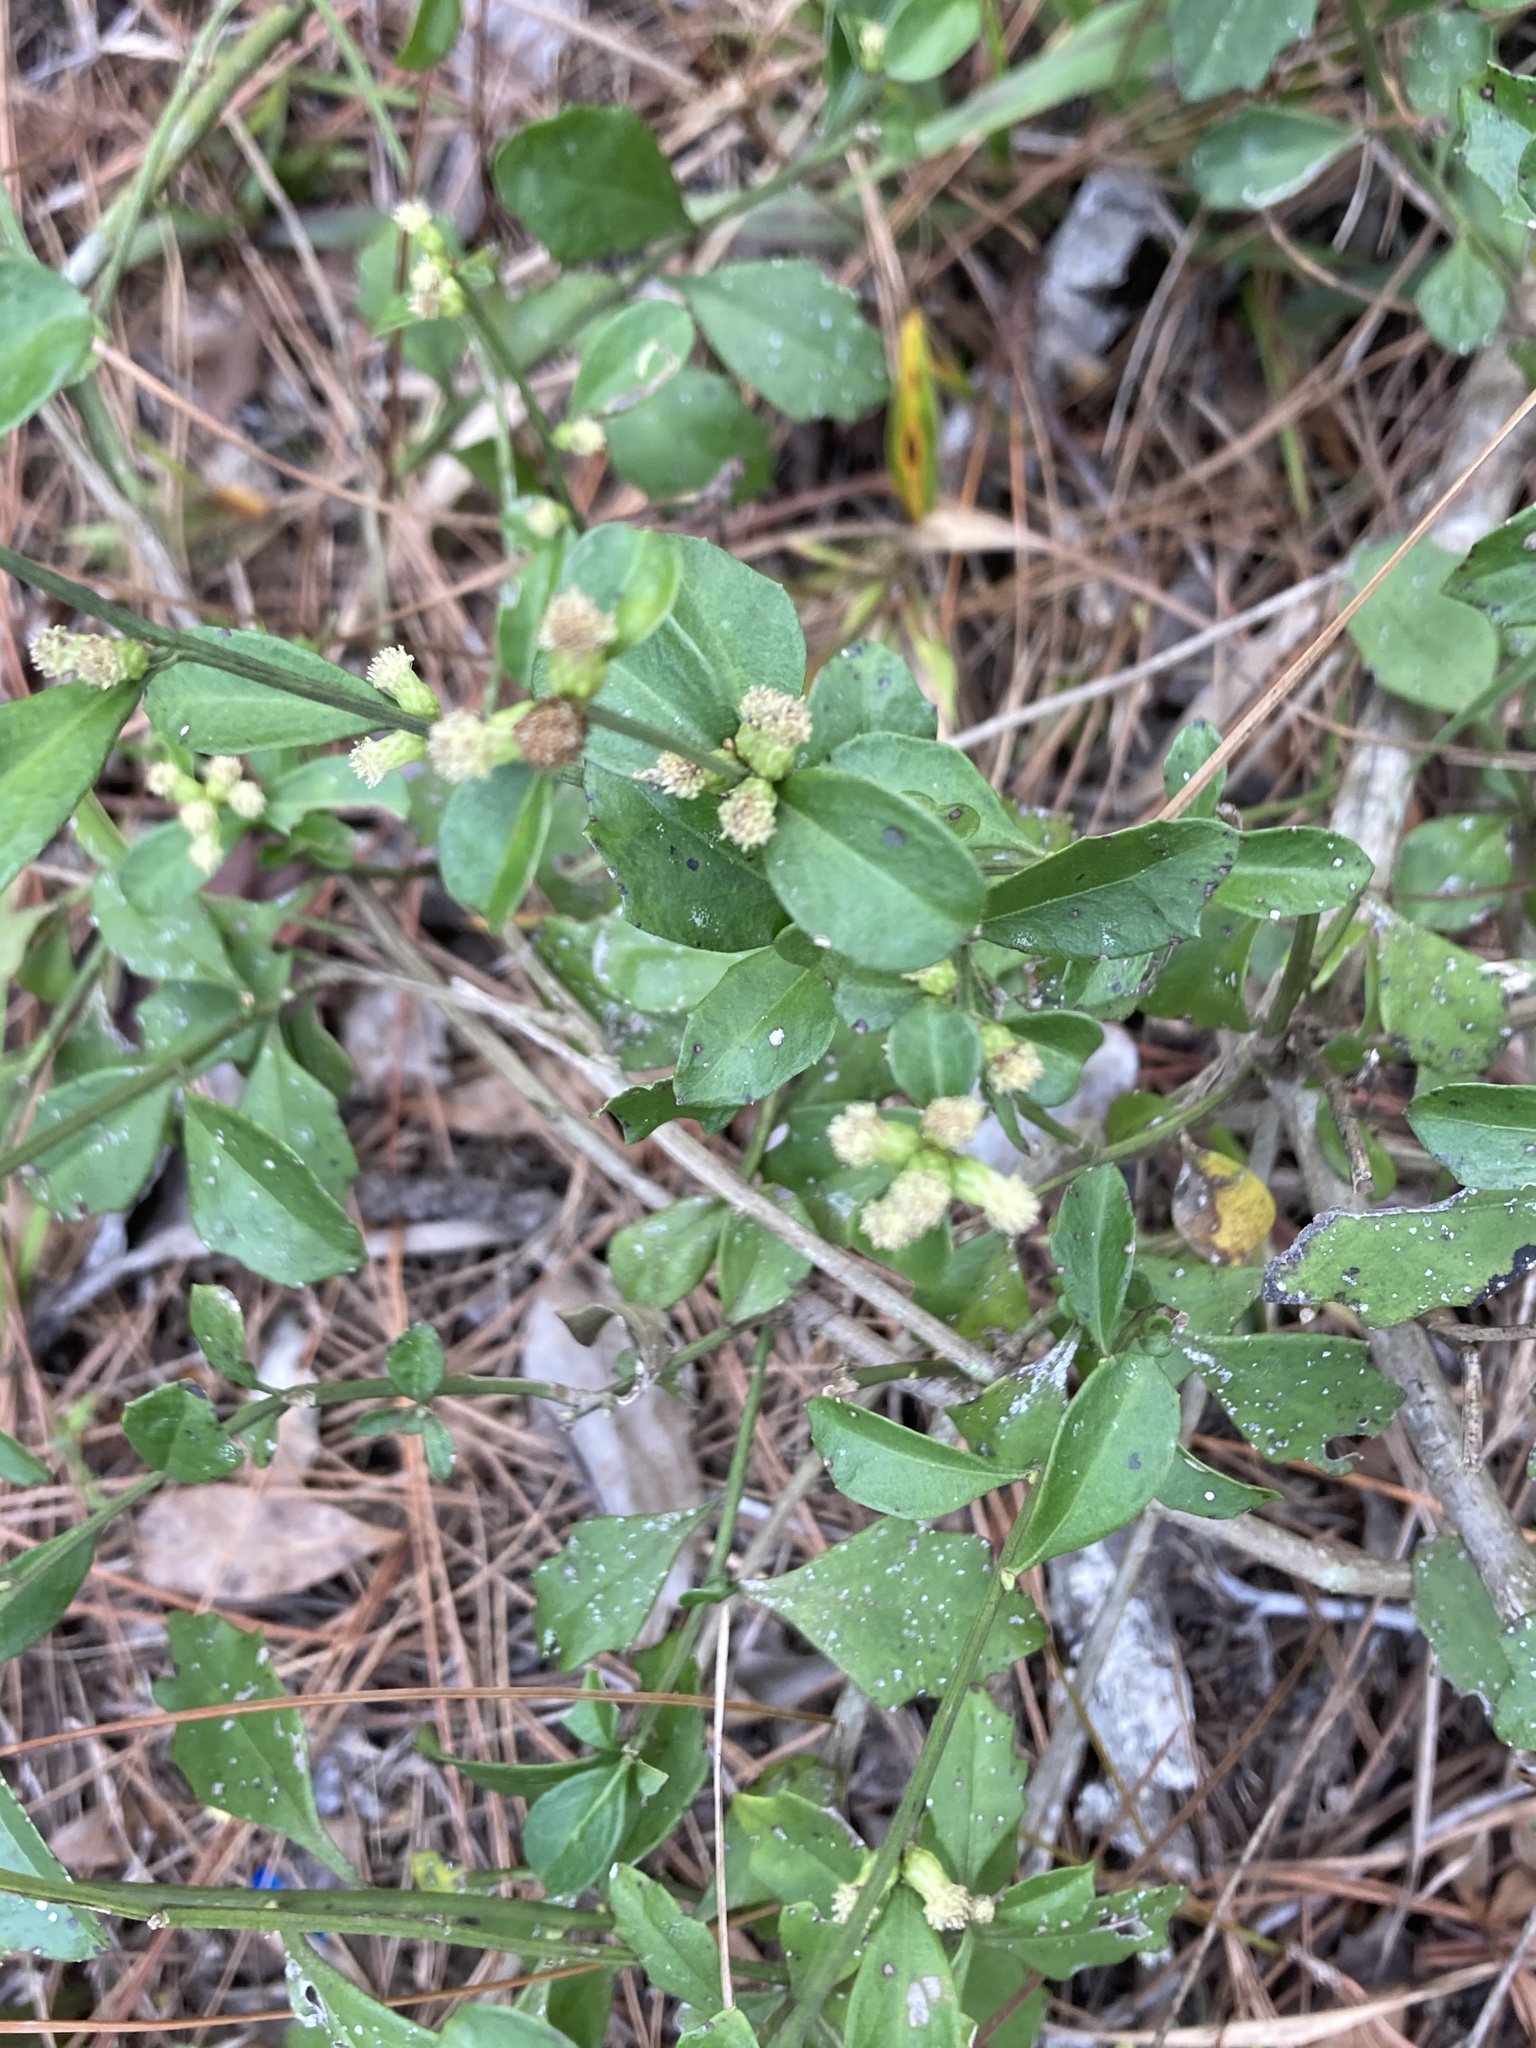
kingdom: Plantae
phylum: Tracheophyta
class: Magnoliopsida
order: Asterales
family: Asteraceae
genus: Baccharis
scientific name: Baccharis glomeruliflora
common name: Silverling groundsel bush
